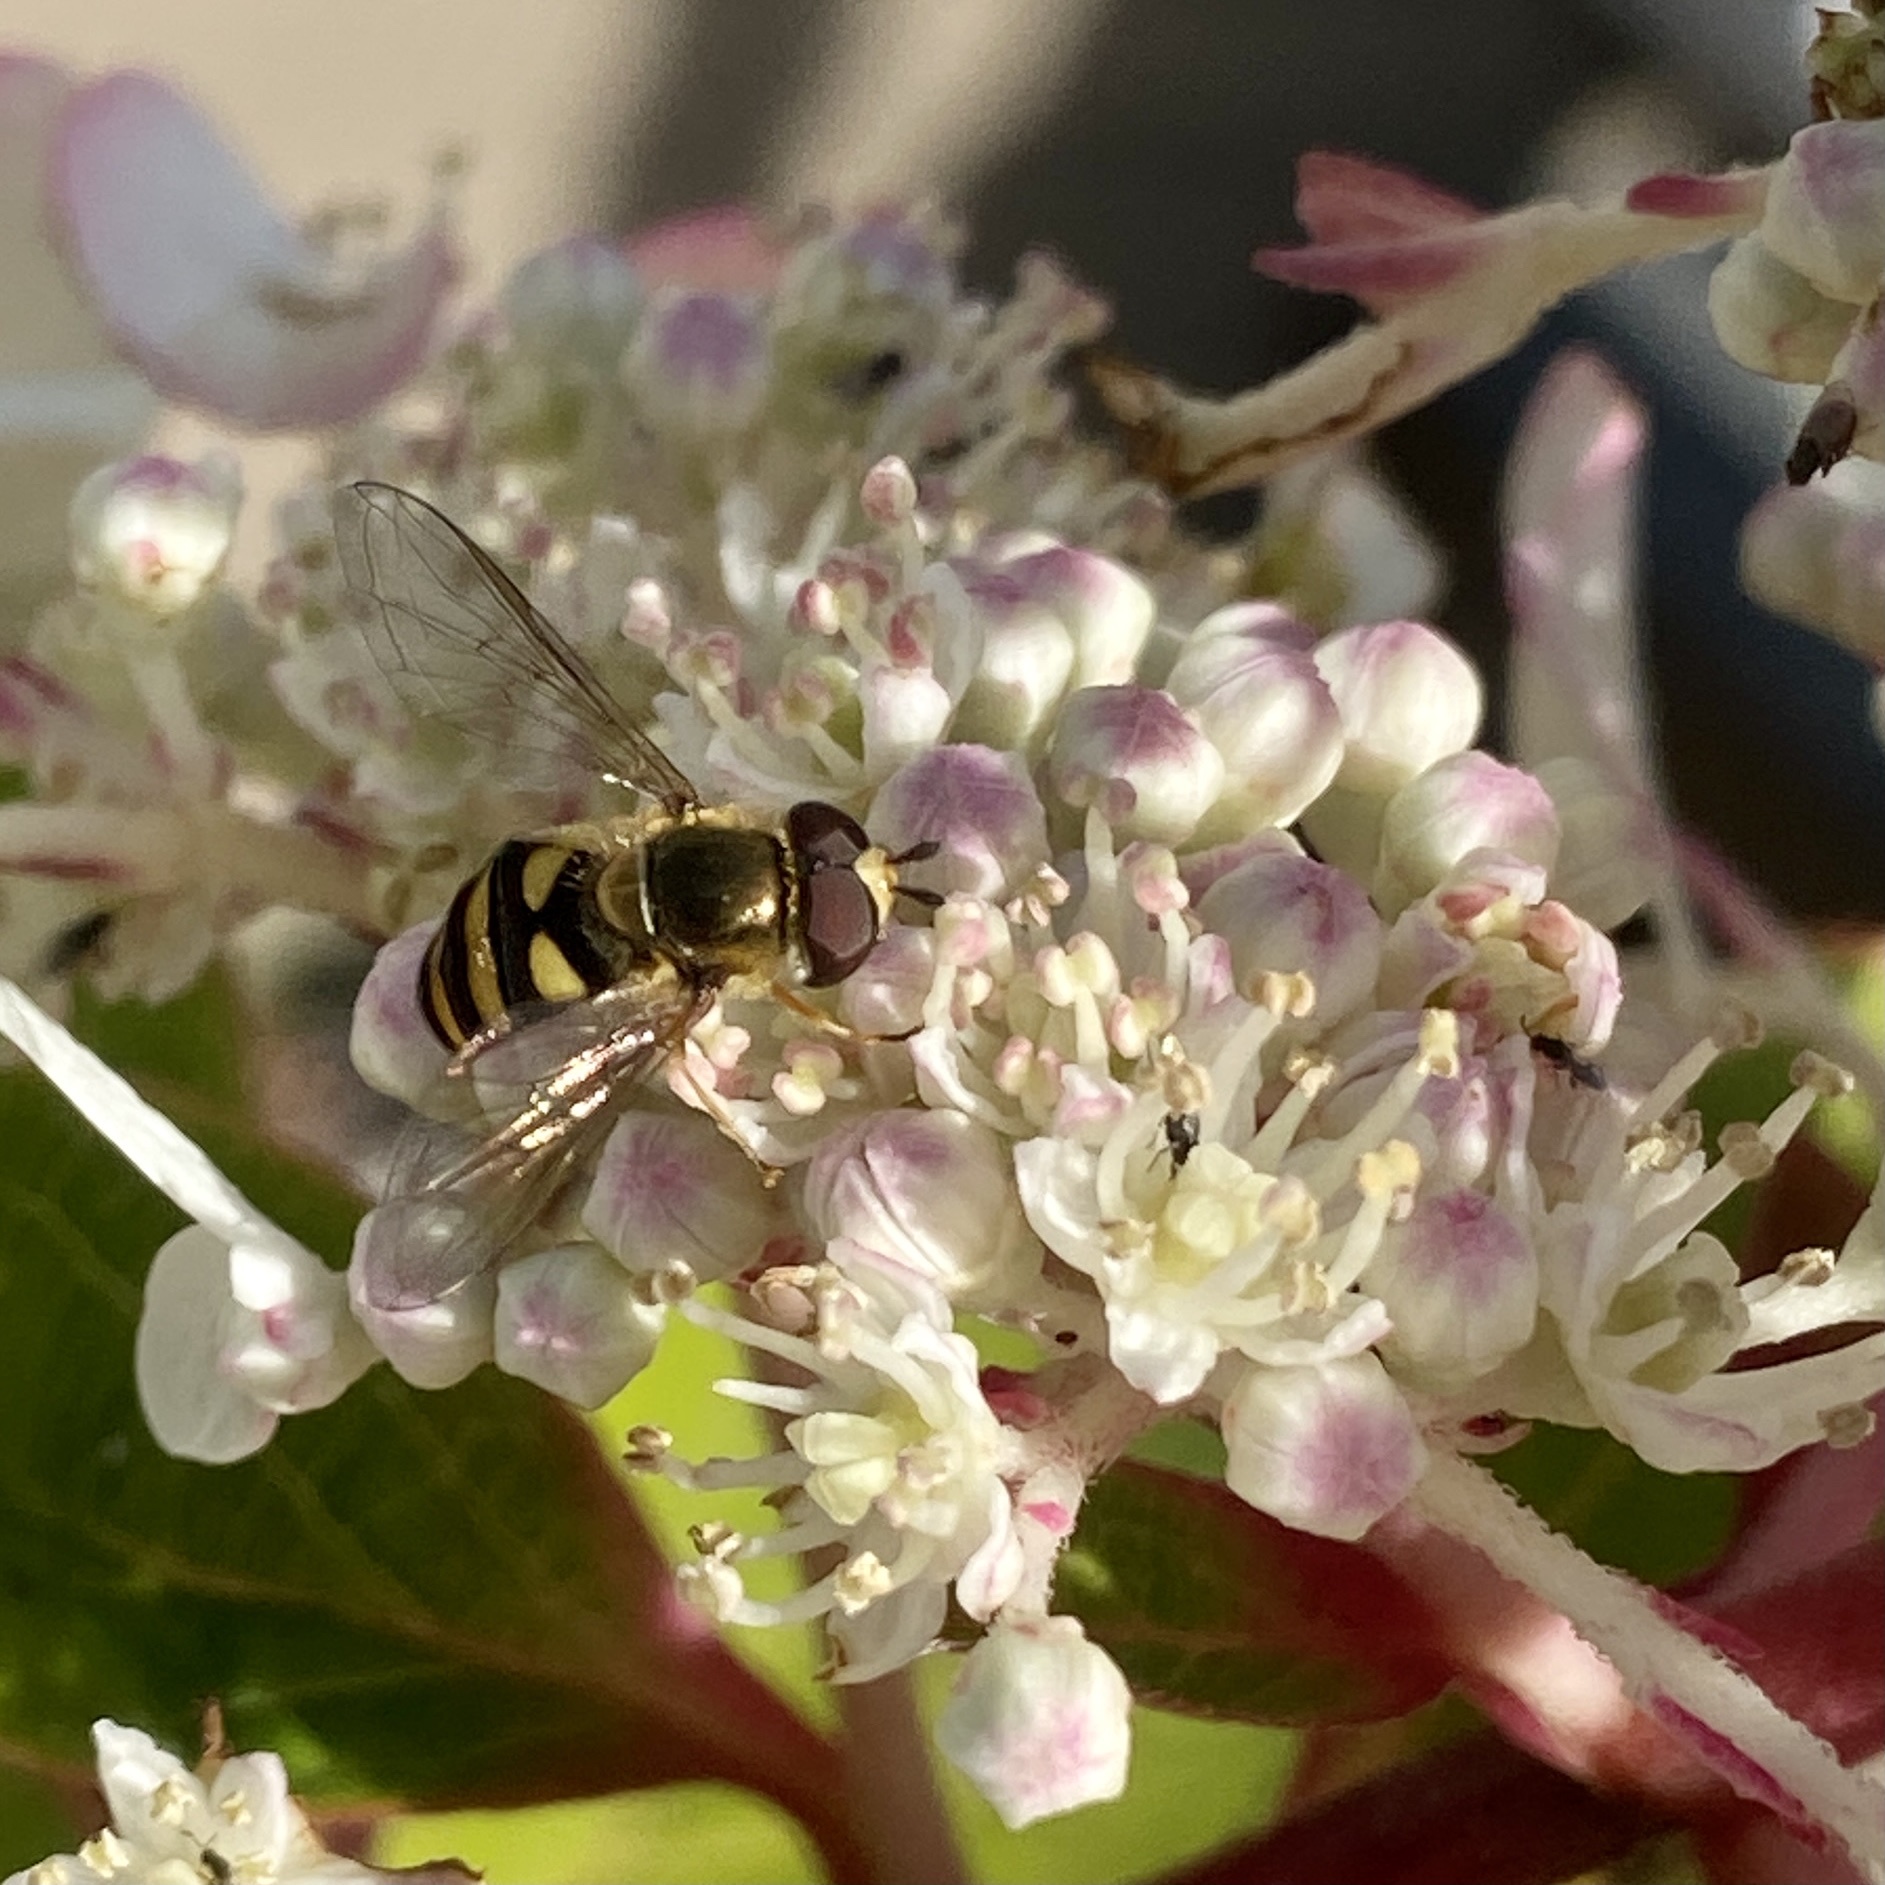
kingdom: Animalia
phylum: Arthropoda
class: Insecta
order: Diptera
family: Syrphidae
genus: Eupeodes
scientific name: Eupeodes
